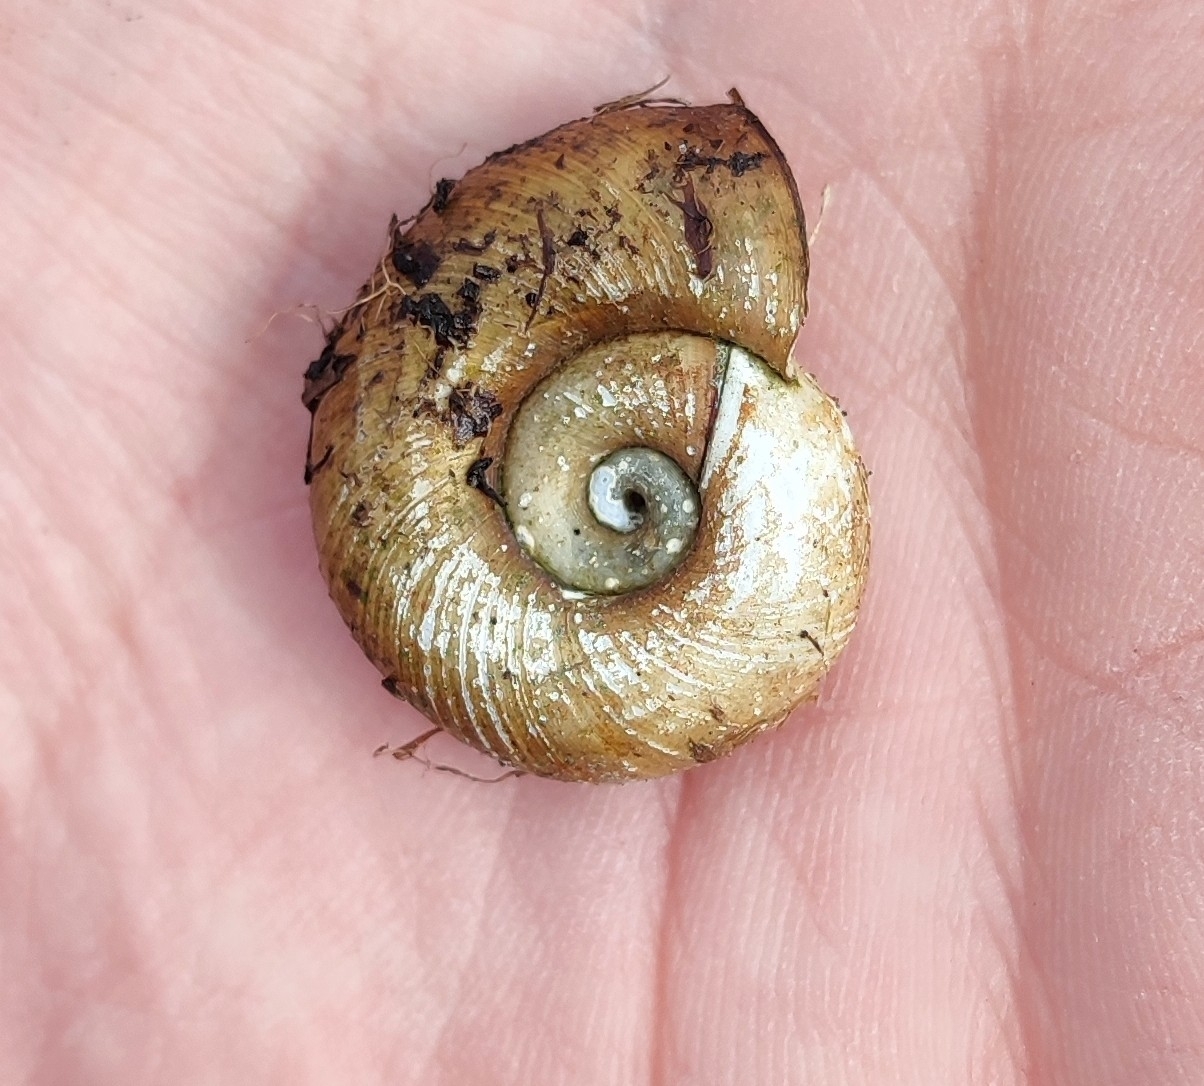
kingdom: Animalia
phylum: Mollusca
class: Gastropoda
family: Planorbidae
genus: Planorbarius
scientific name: Planorbarius corneus
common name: Great ramshorn
